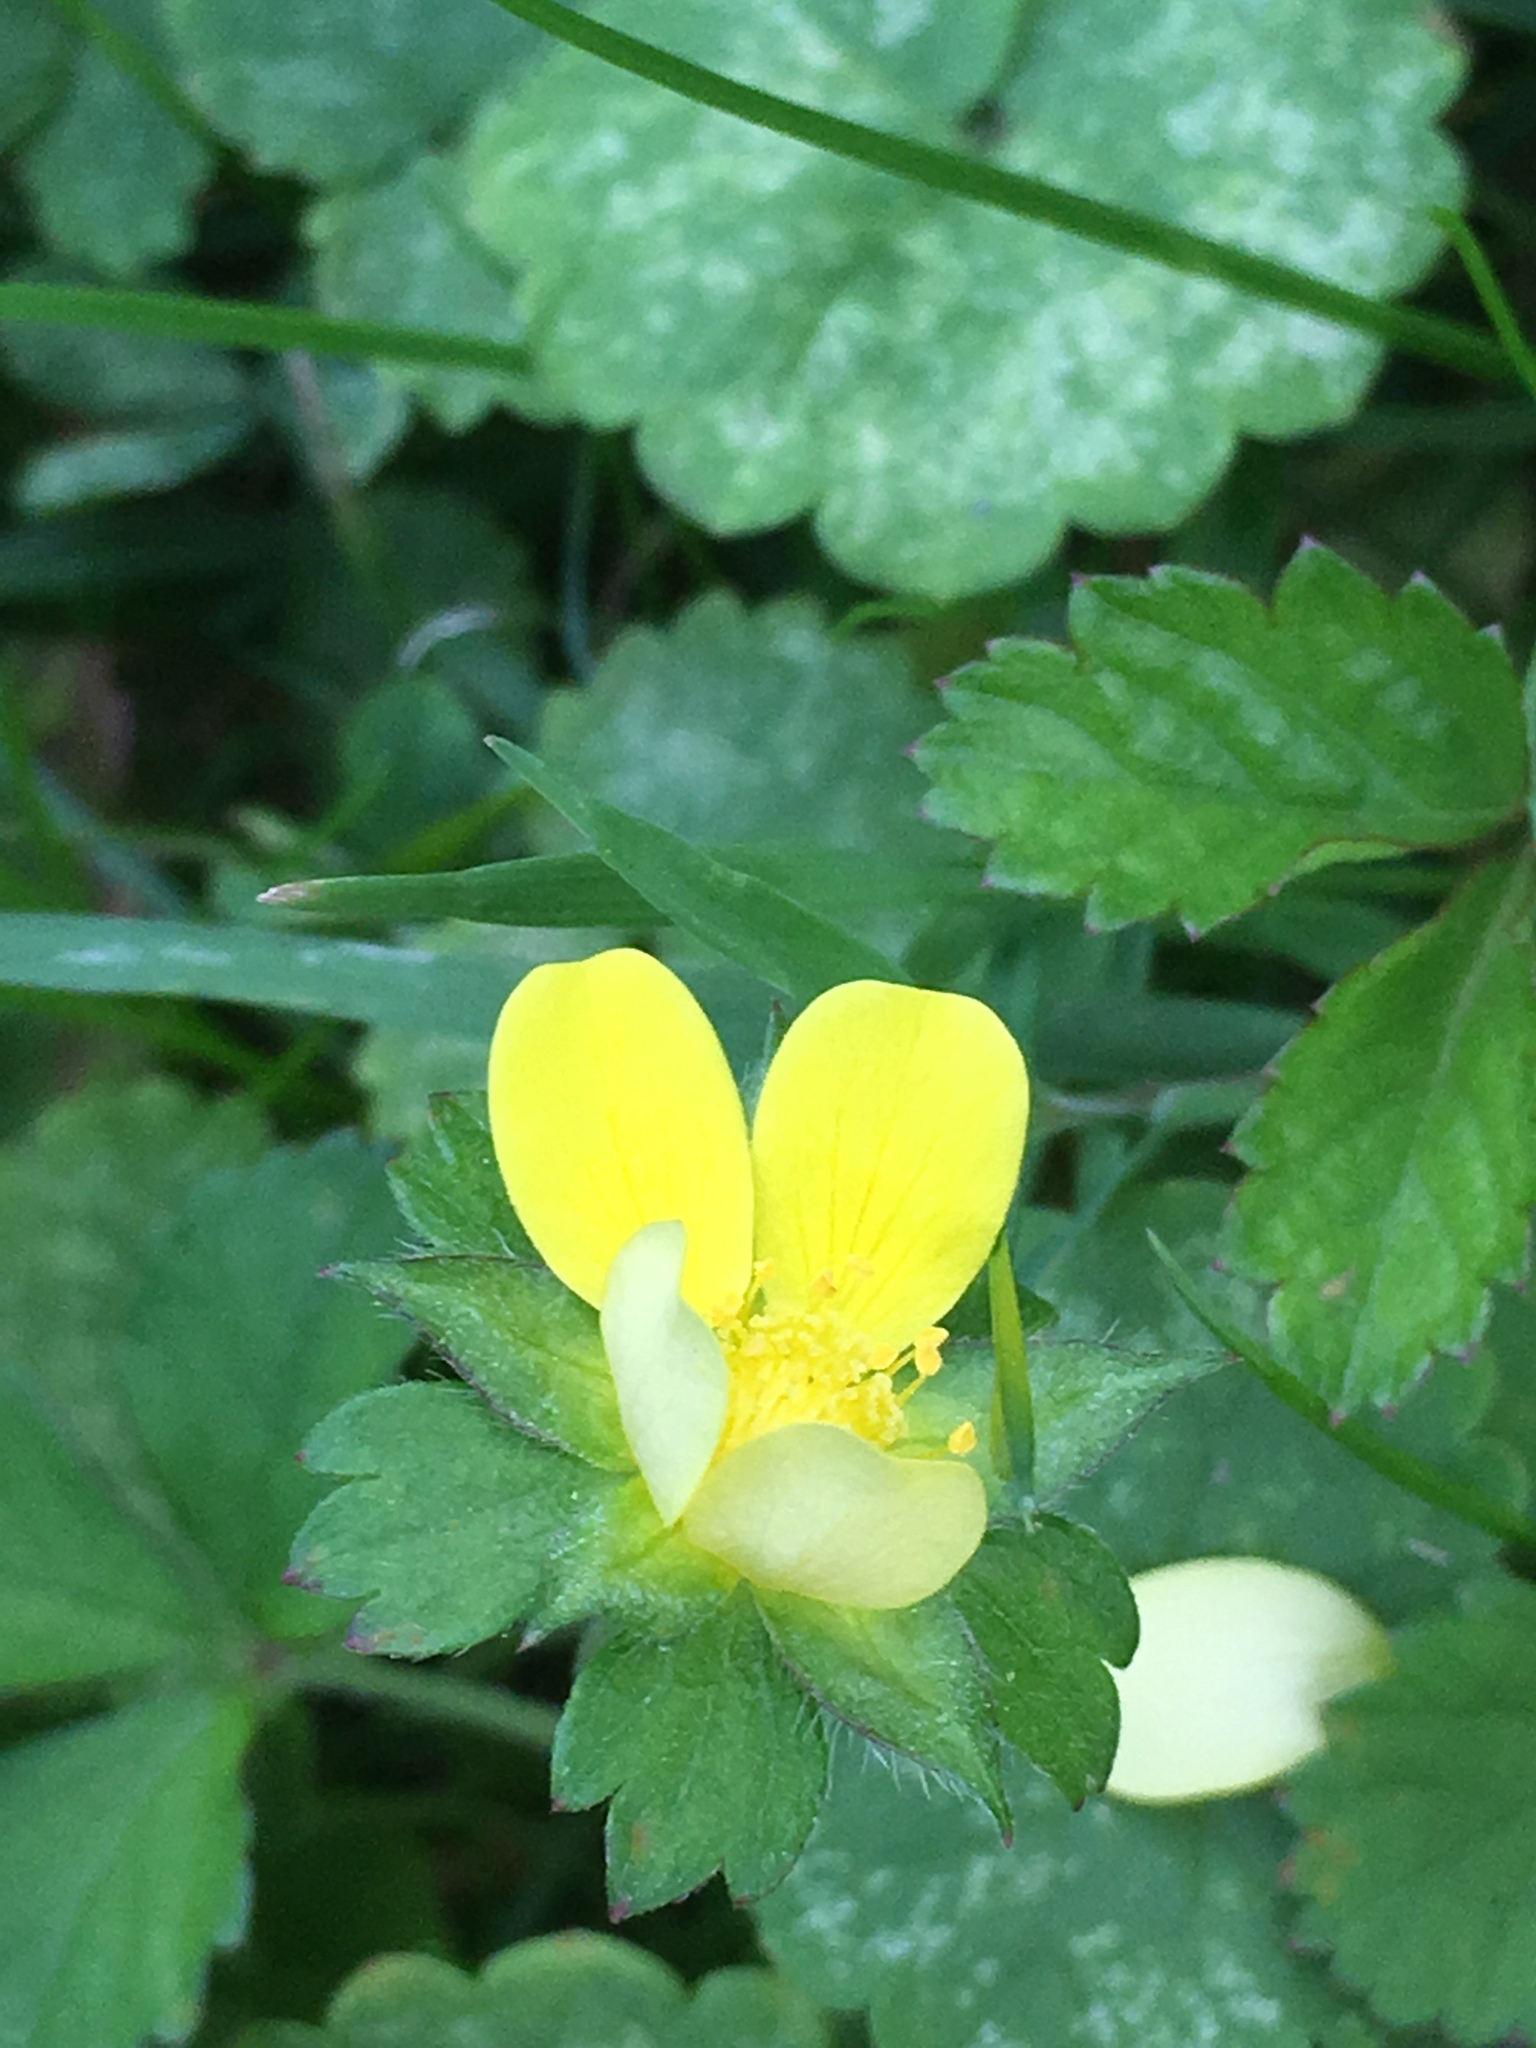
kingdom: Plantae
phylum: Tracheophyta
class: Magnoliopsida
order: Rosales
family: Rosaceae
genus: Potentilla
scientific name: Potentilla indica
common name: Yellow-flowered strawberry
